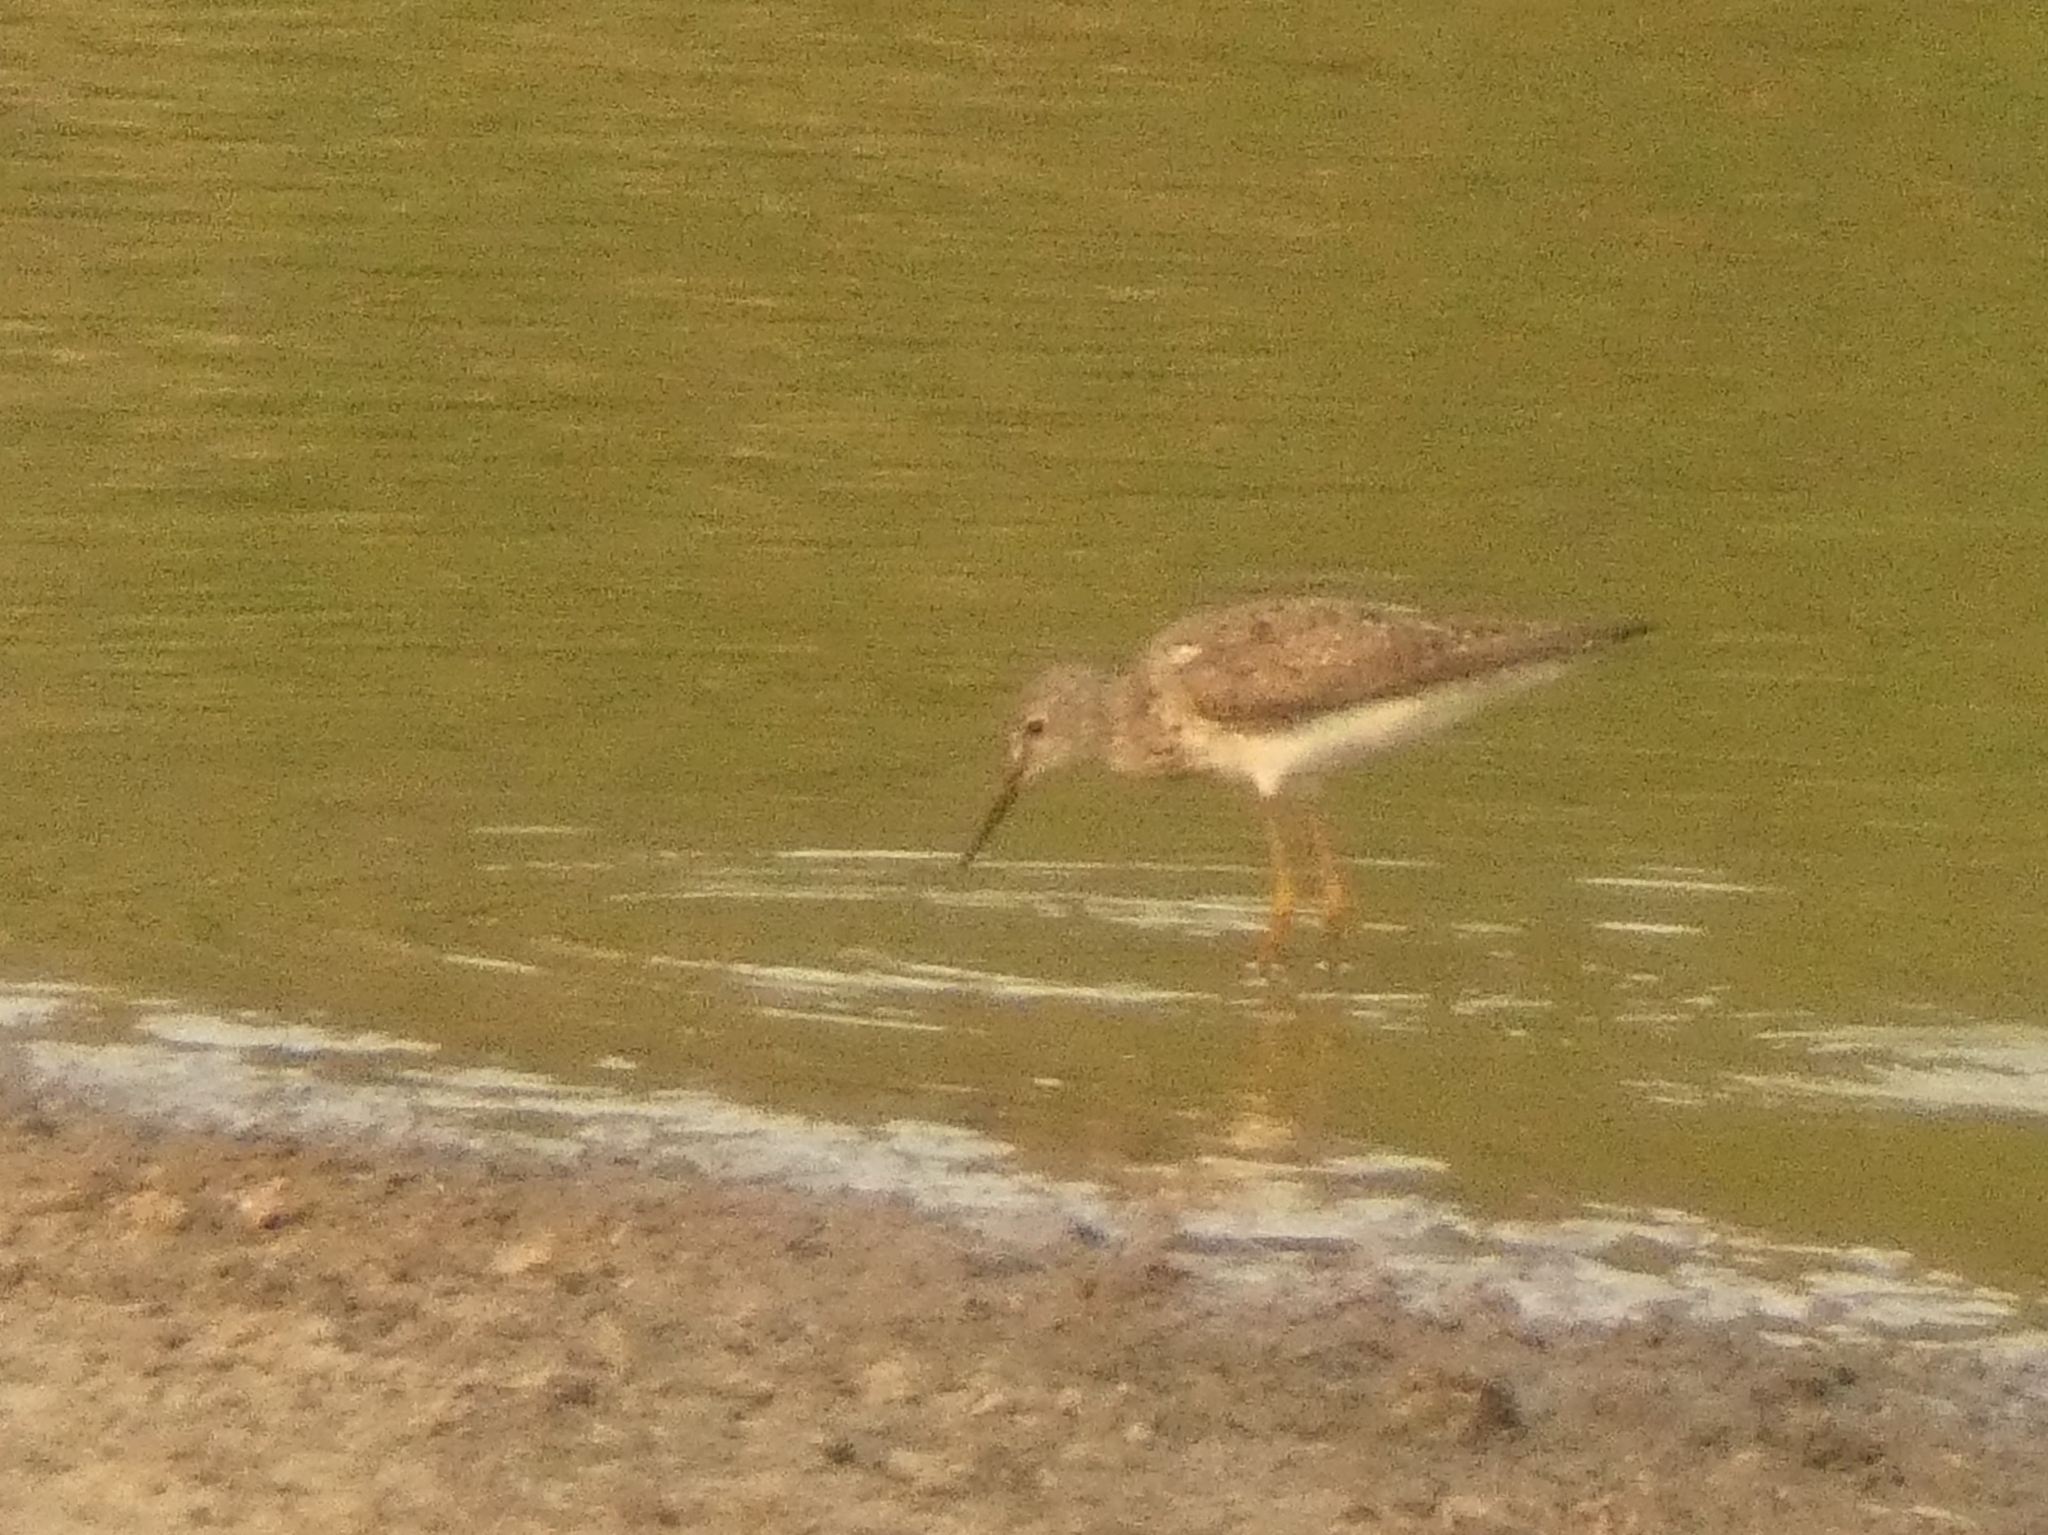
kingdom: Animalia
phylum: Chordata
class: Aves
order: Charadriiformes
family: Scolopacidae
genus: Tringa
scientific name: Tringa flavipes
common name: Lesser yellowlegs
